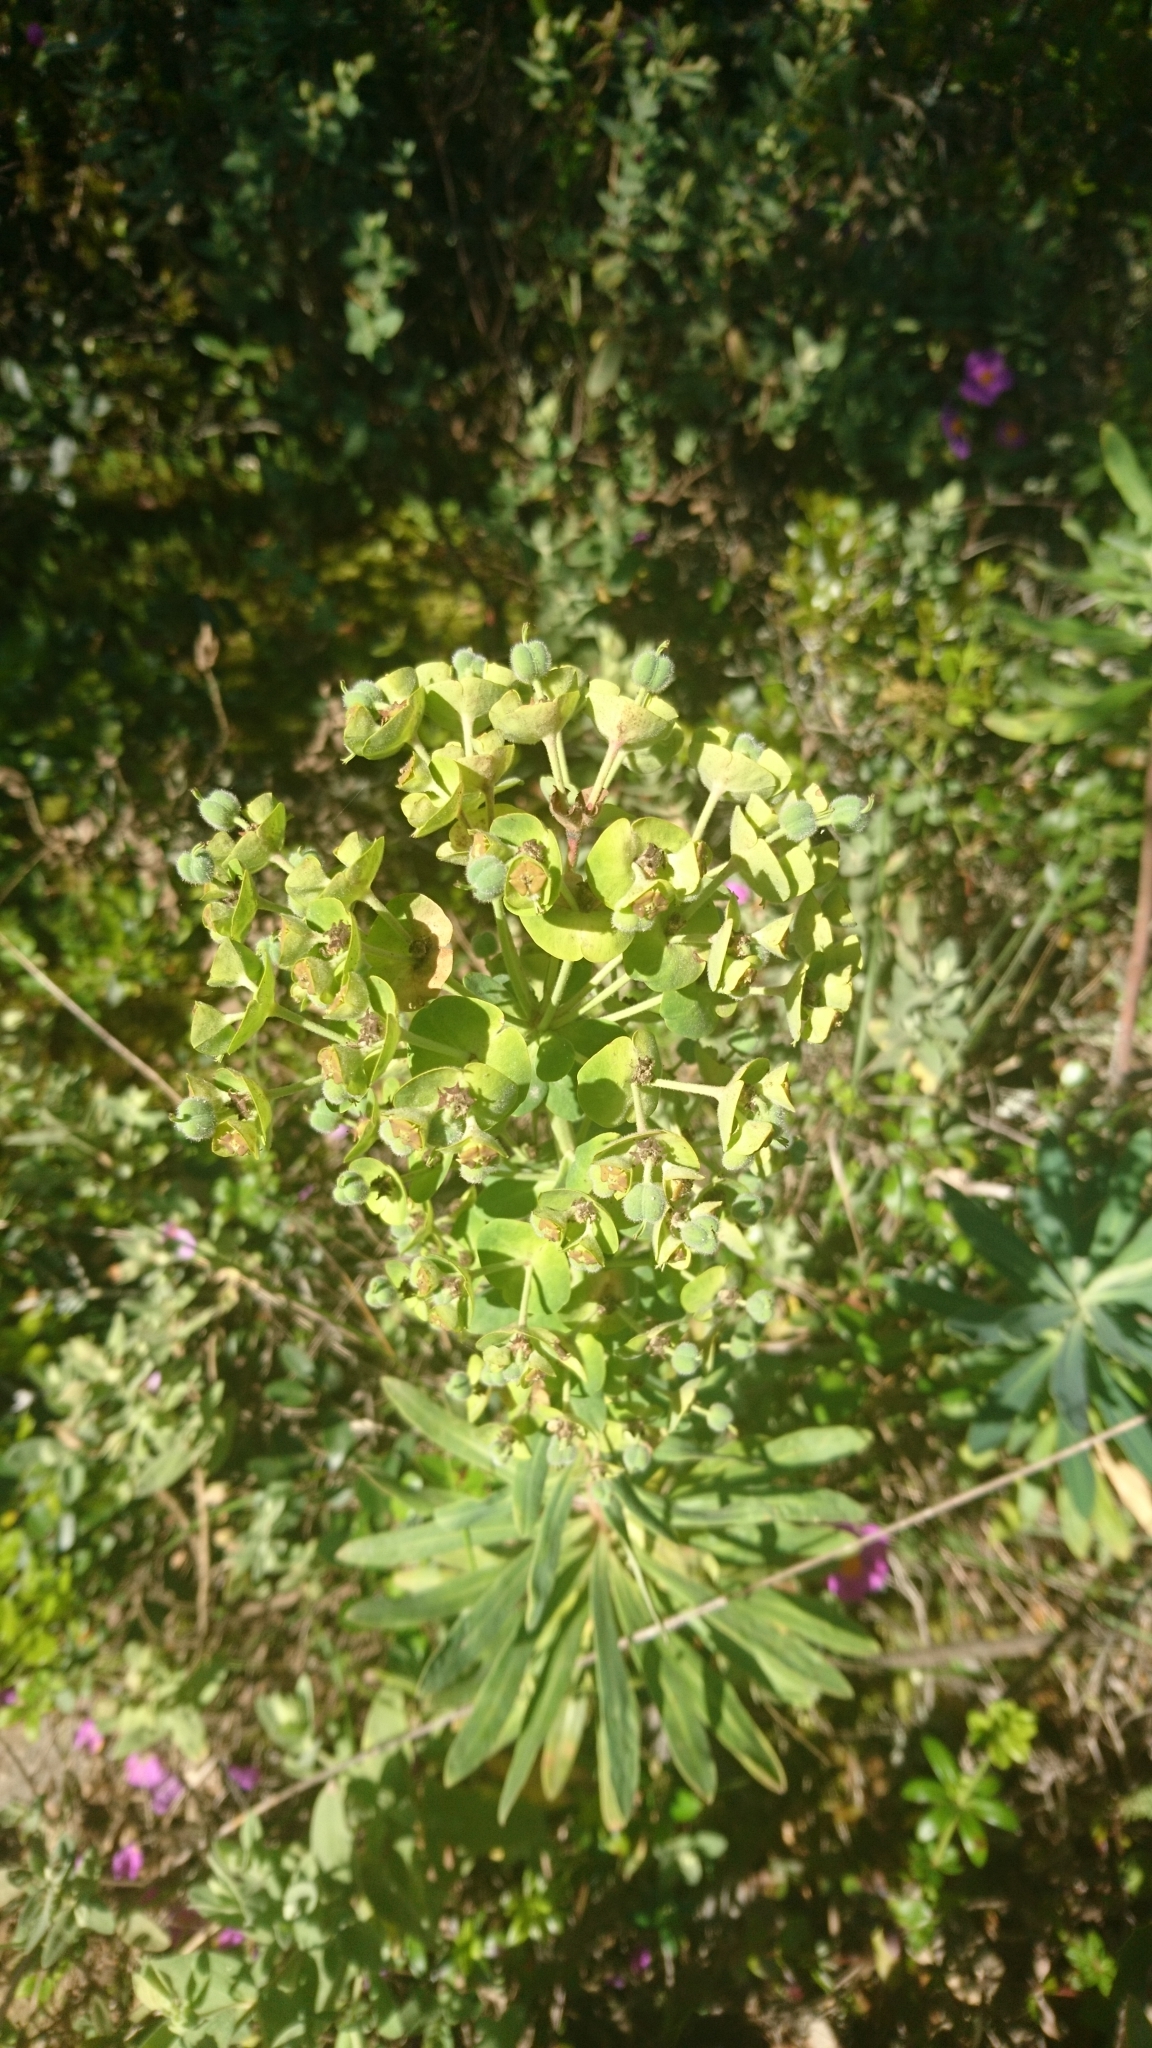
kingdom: Plantae
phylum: Tracheophyta
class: Magnoliopsida
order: Malpighiales
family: Euphorbiaceae
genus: Euphorbia
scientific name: Euphorbia characias
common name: Mediterranean spurge
